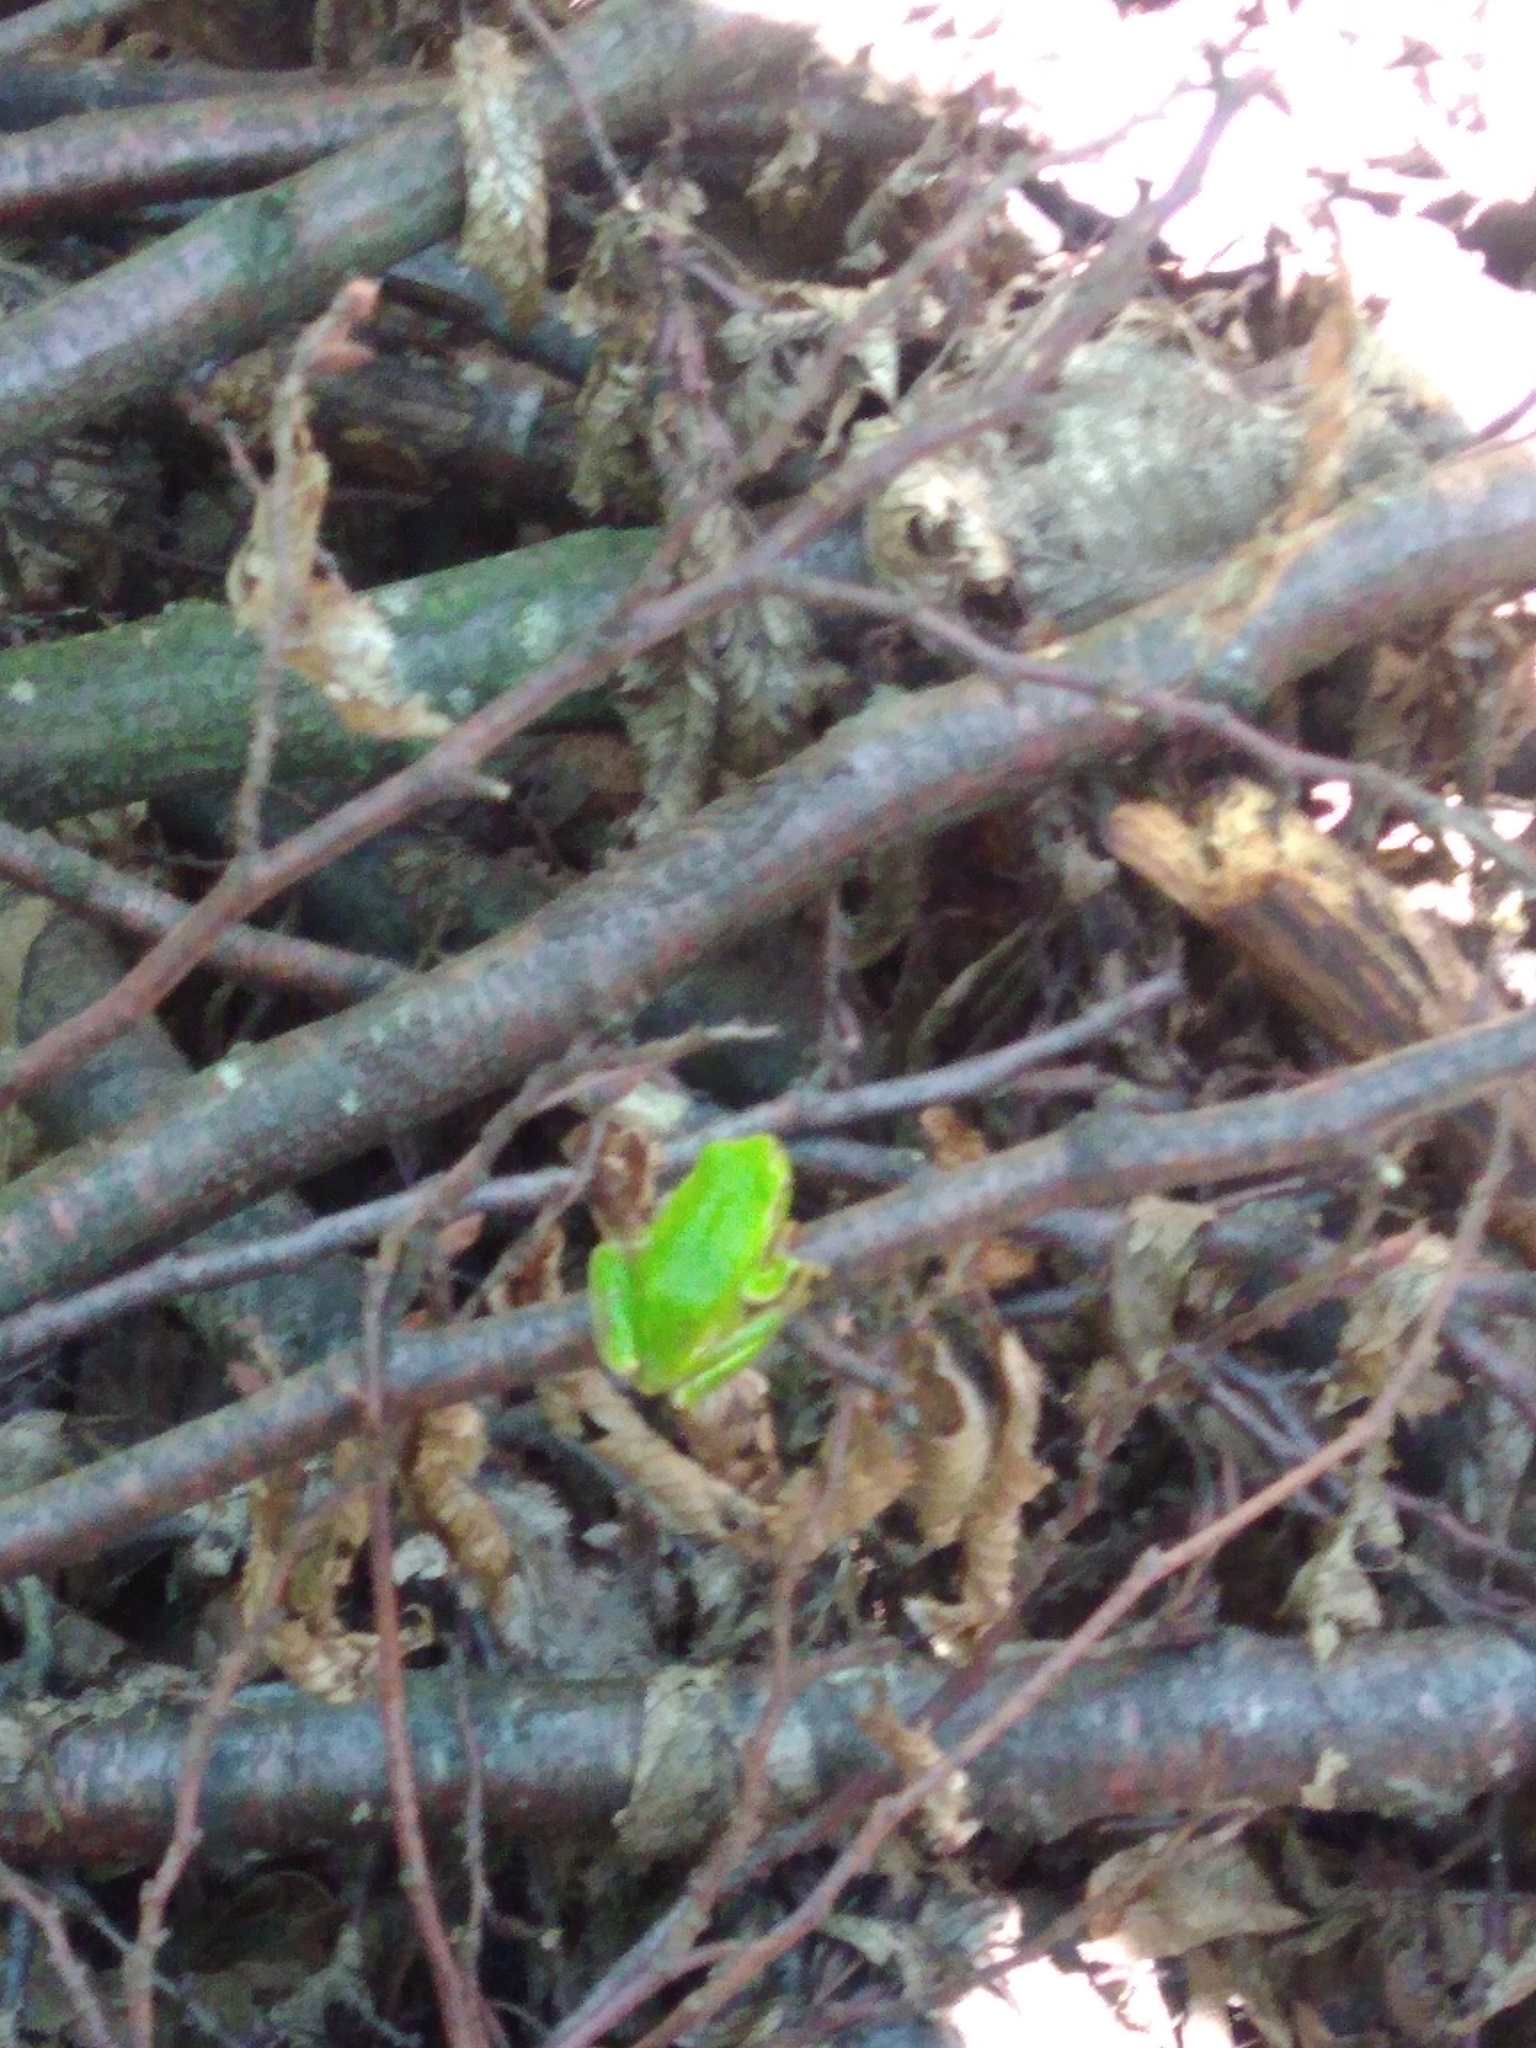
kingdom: Animalia
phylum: Chordata
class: Amphibia
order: Anura
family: Hylidae
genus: Hyla
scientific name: Hyla orientalis
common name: Caucasian treefrog
